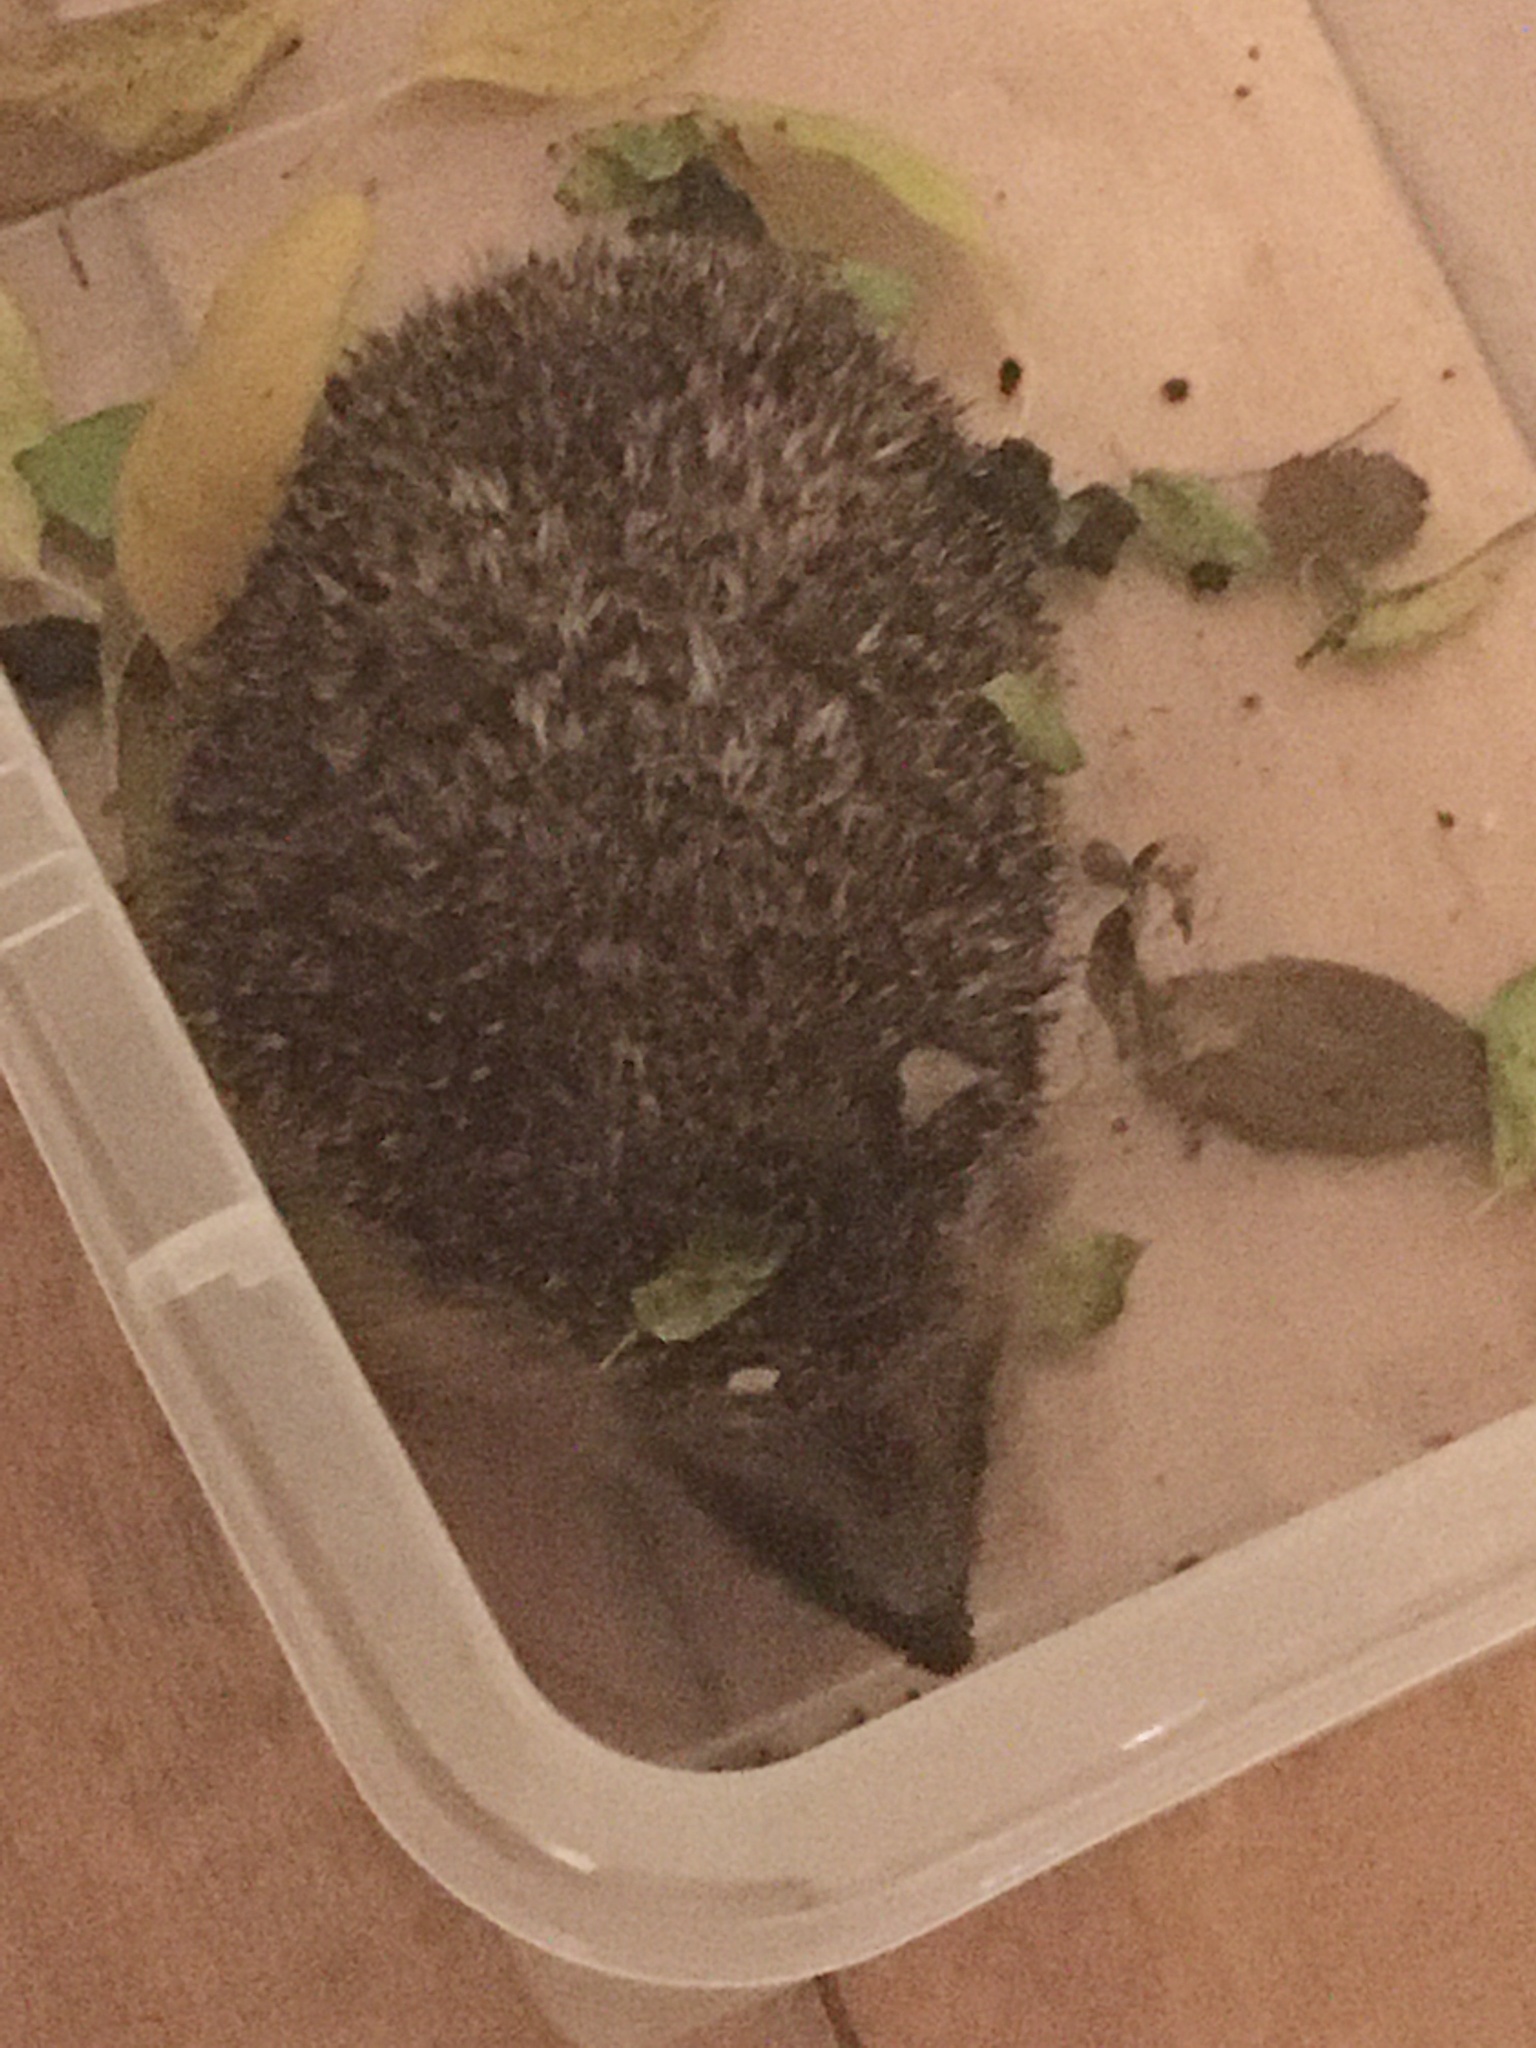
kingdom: Animalia
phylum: Chordata
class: Mammalia
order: Erinaceomorpha
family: Erinaceidae
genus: Erinaceus
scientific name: Erinaceus europaeus
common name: West european hedgehog
